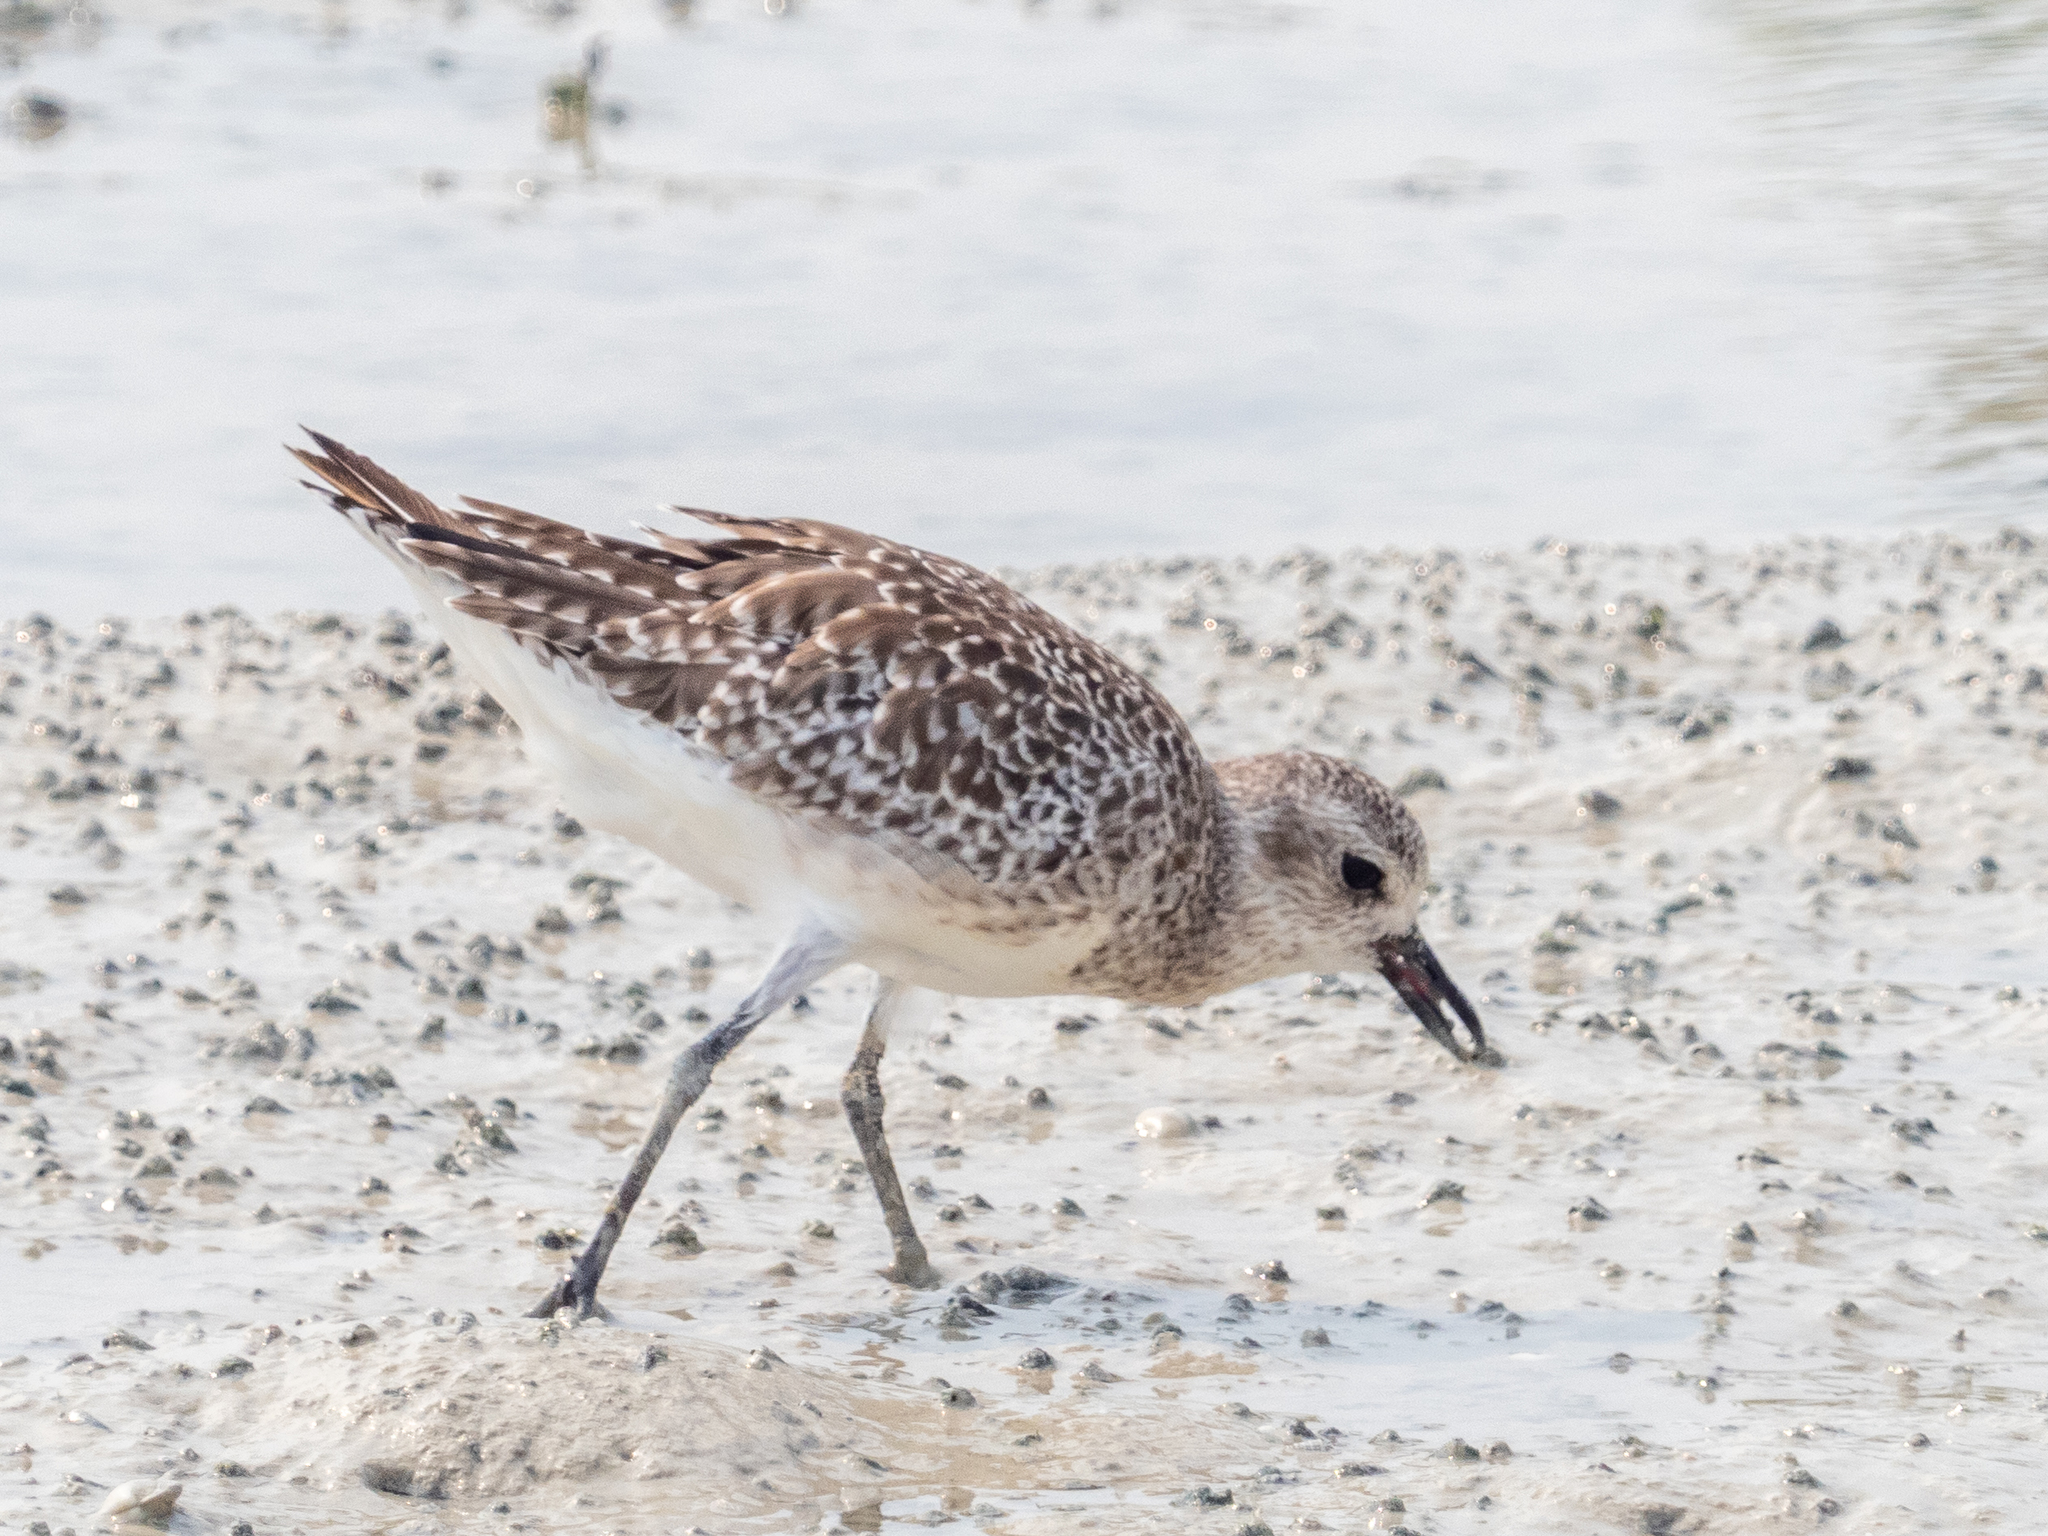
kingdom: Animalia
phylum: Chordata
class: Aves
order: Charadriiformes
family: Charadriidae
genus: Pluvialis
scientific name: Pluvialis squatarola
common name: Grey plover
